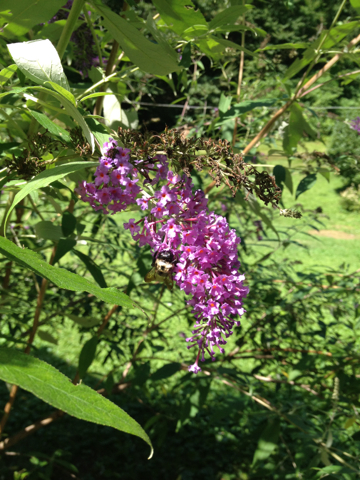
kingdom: Animalia
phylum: Arthropoda
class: Insecta
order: Hymenoptera
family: Apidae
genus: Xylocopa
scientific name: Xylocopa virginica
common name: Carpenter bee
